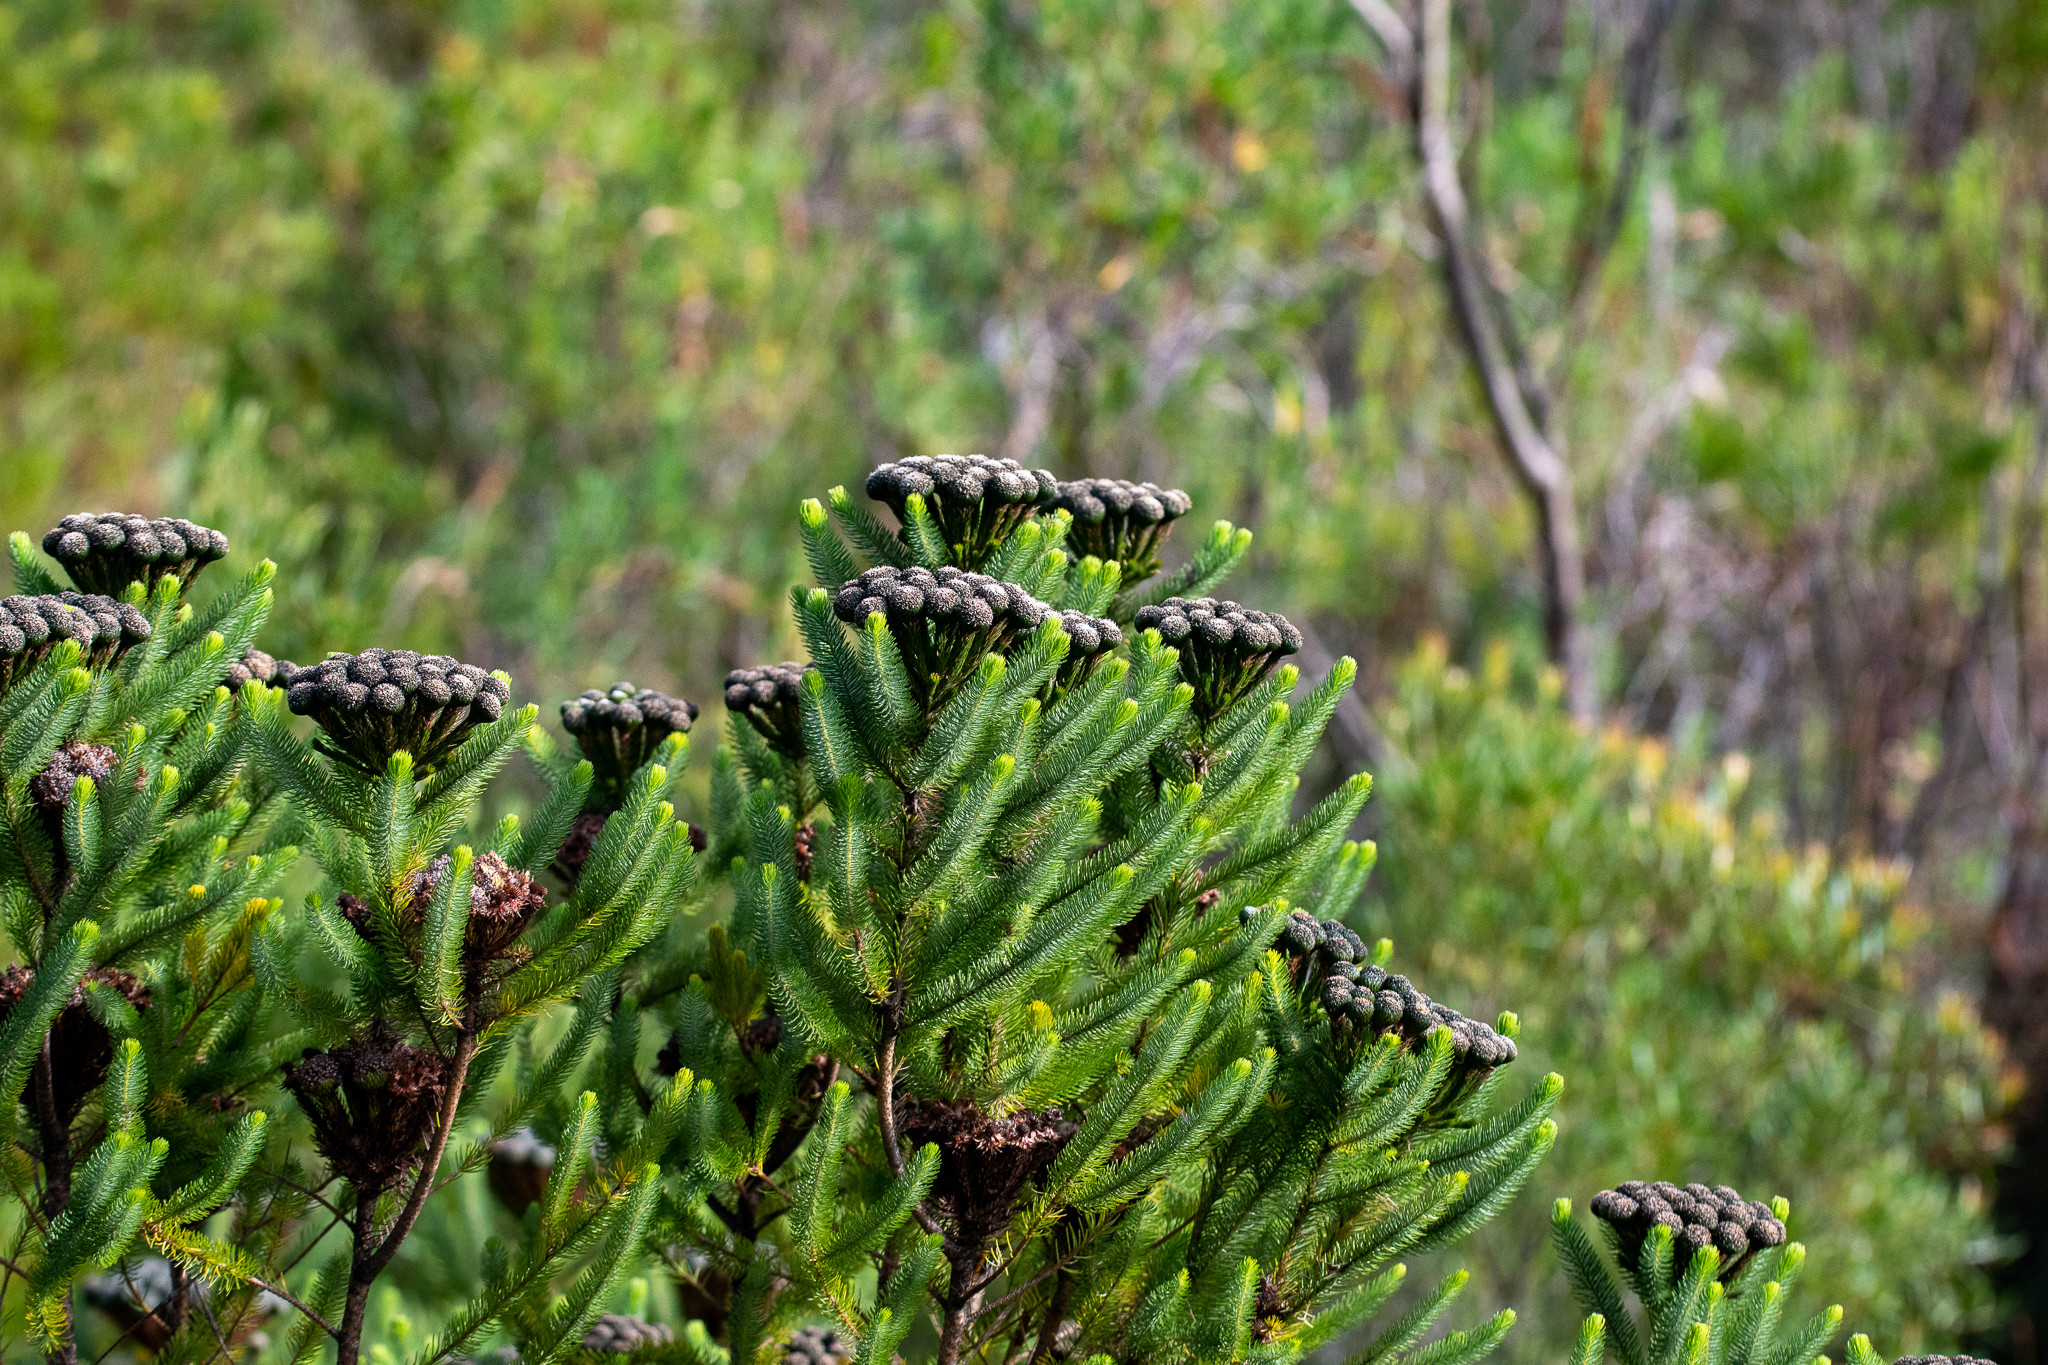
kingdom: Plantae
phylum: Tracheophyta
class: Magnoliopsida
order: Bruniales
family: Bruniaceae
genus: Berzelia
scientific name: Berzelia albiflora
